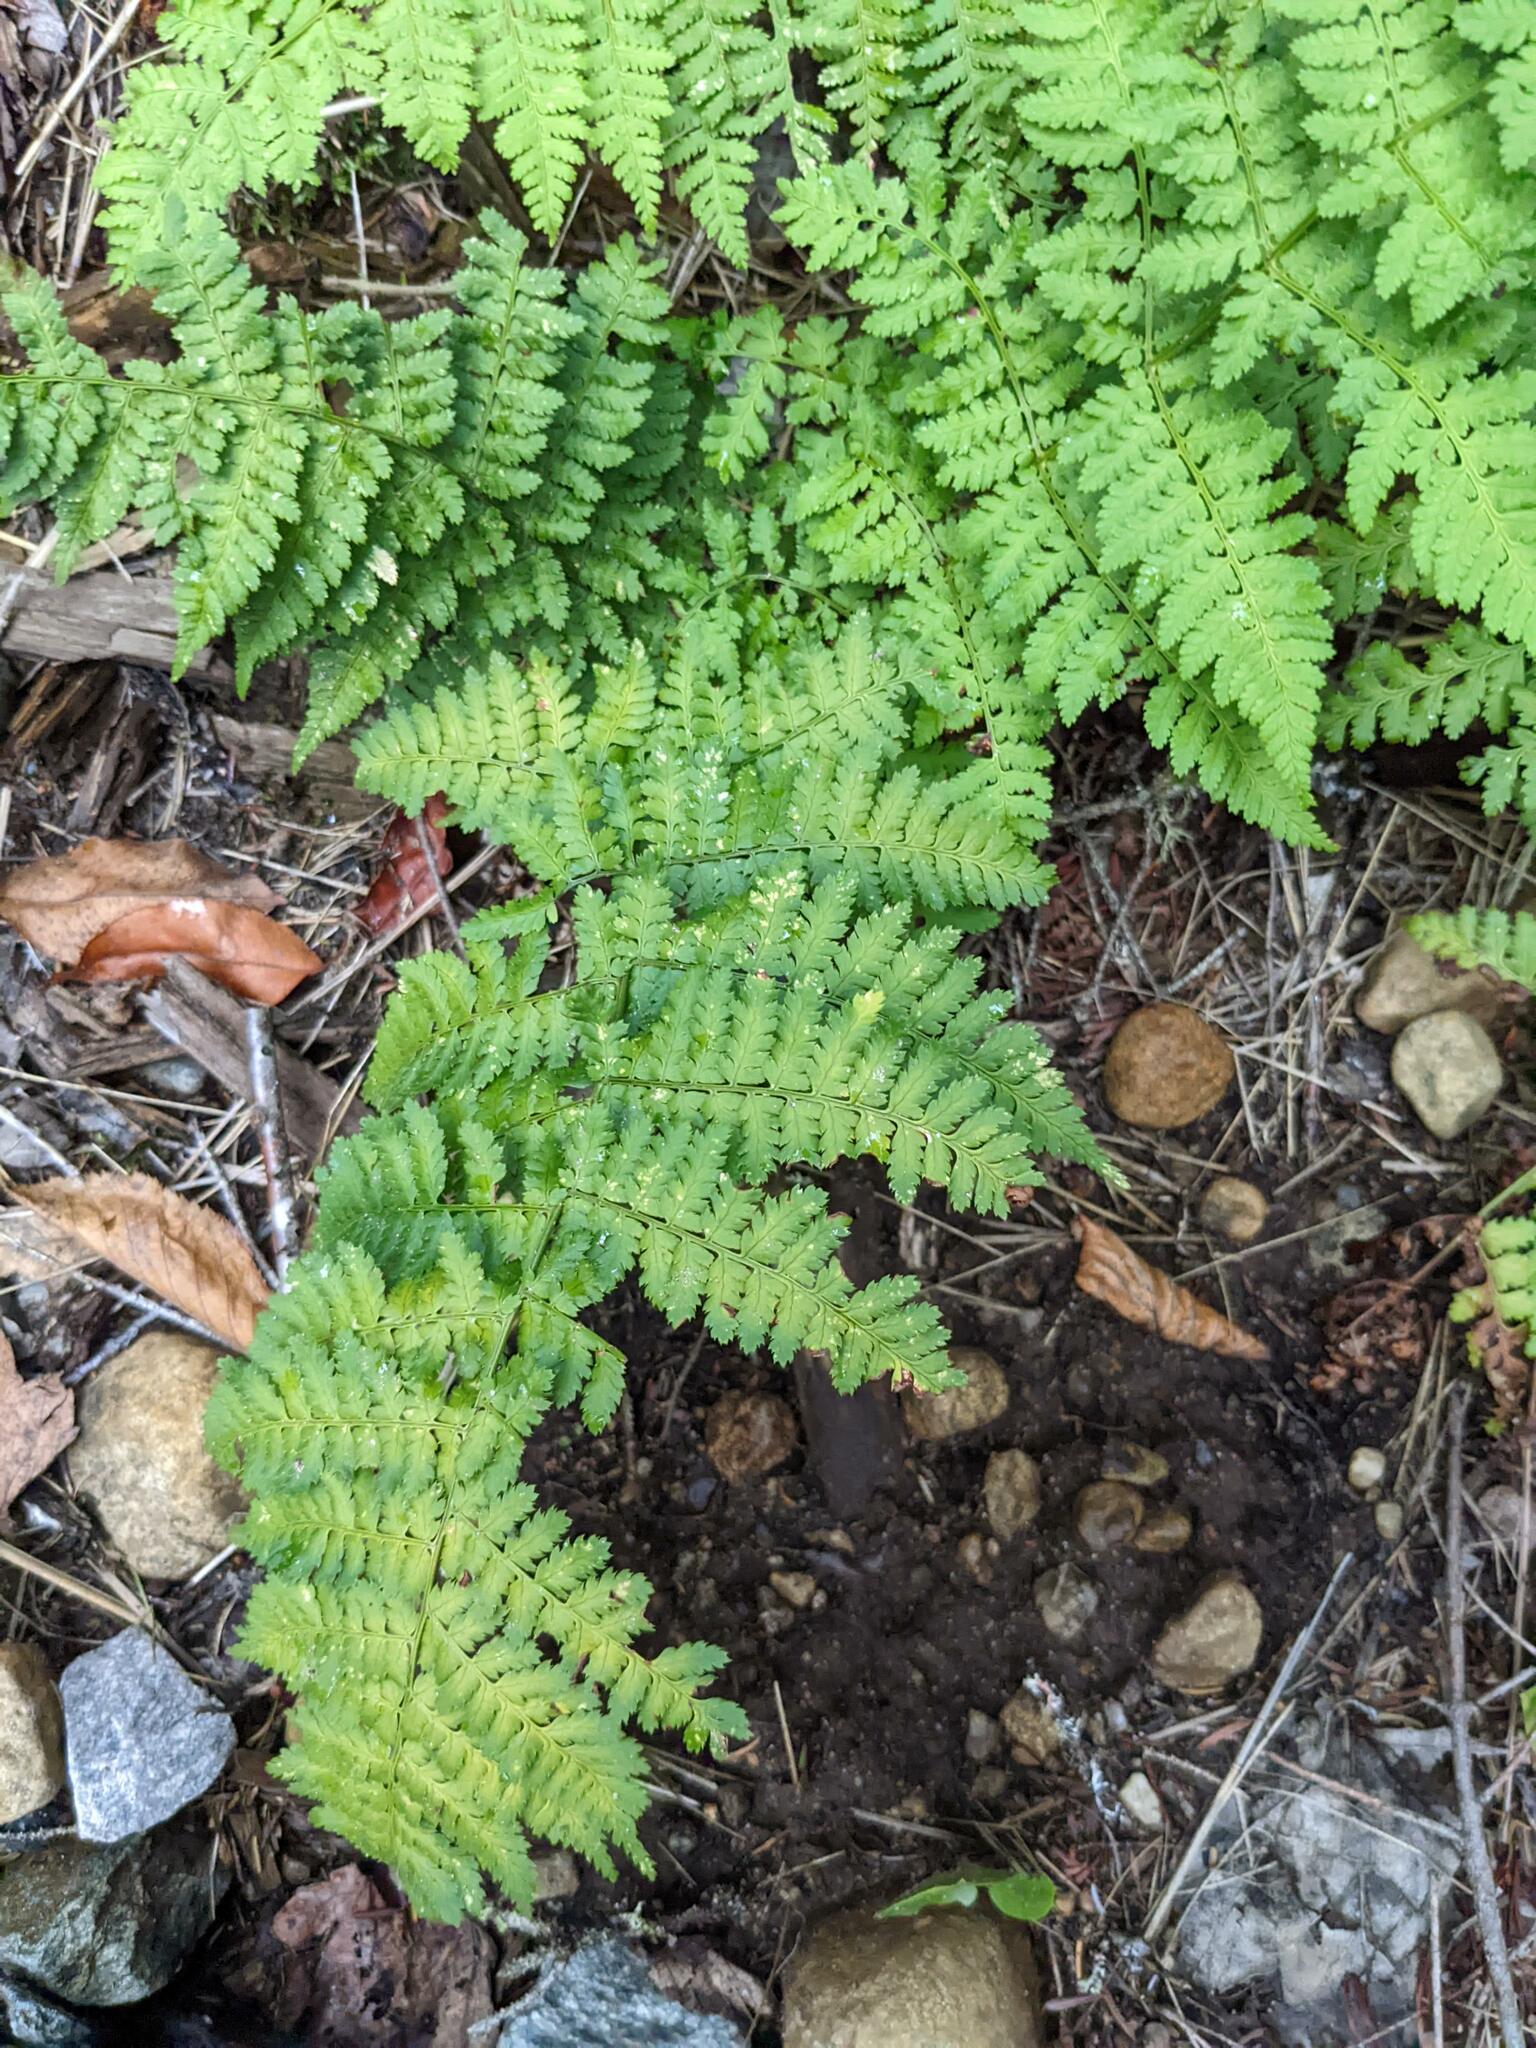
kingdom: Plantae
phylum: Tracheophyta
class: Polypodiopsida
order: Polypodiales
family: Dryopteridaceae
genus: Dryopteris
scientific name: Dryopteris intermedia
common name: Evergreen wood fern
